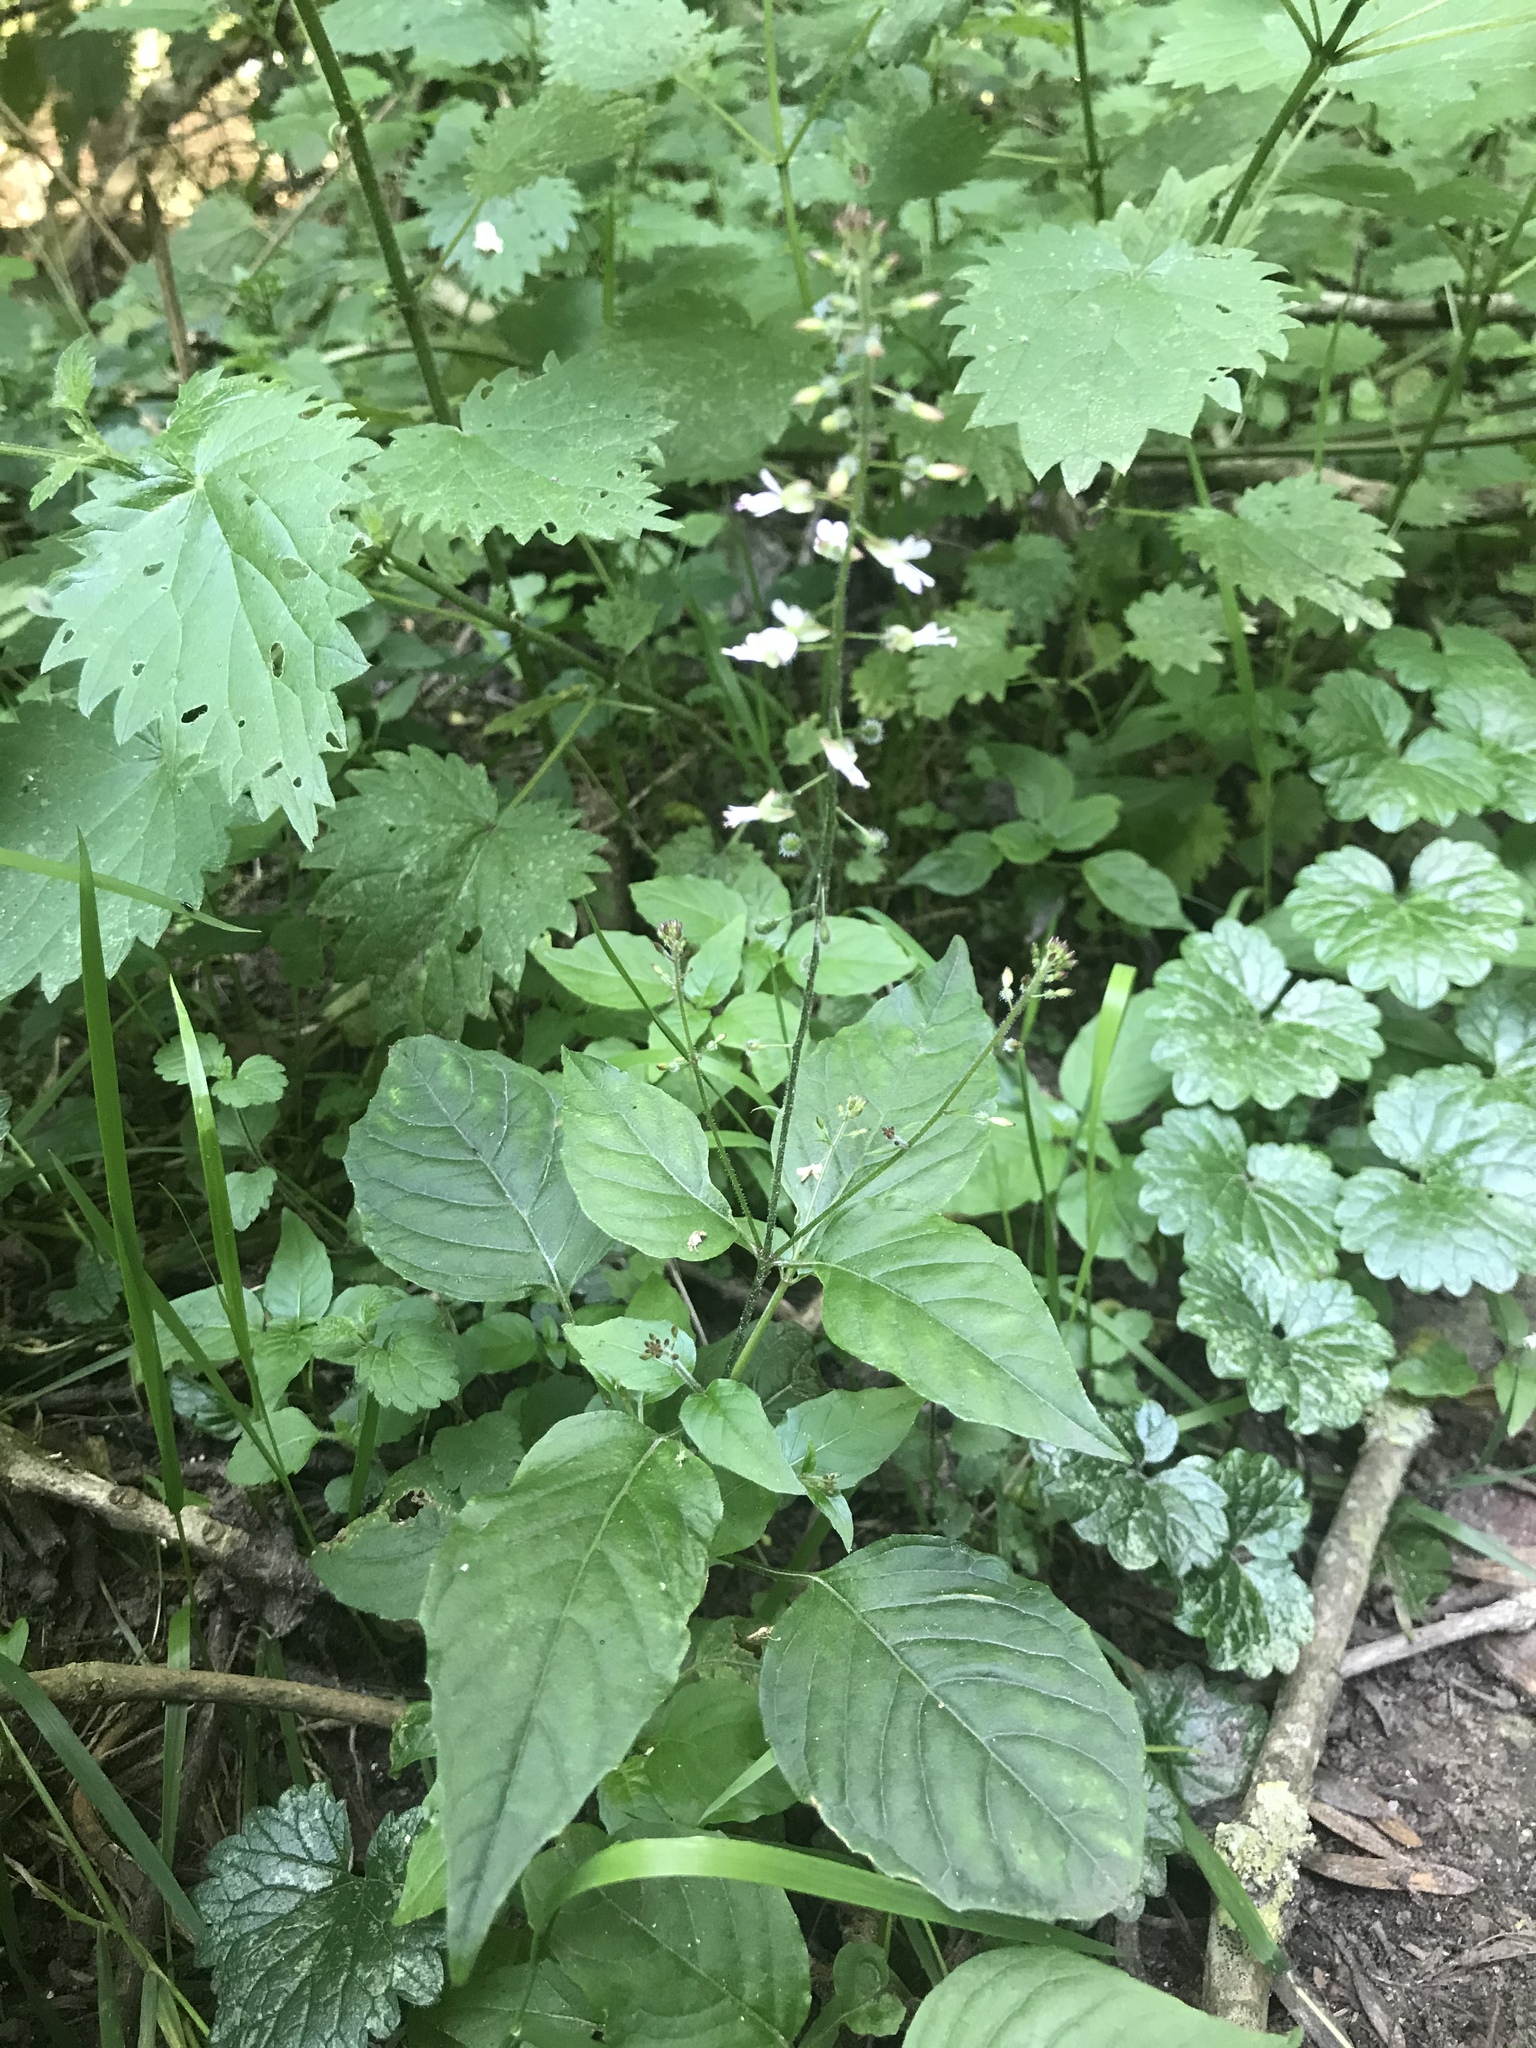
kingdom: Plantae
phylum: Tracheophyta
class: Magnoliopsida
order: Myrtales
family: Onagraceae
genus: Circaea
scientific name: Circaea lutetiana
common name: Enchanter's-nightshade
